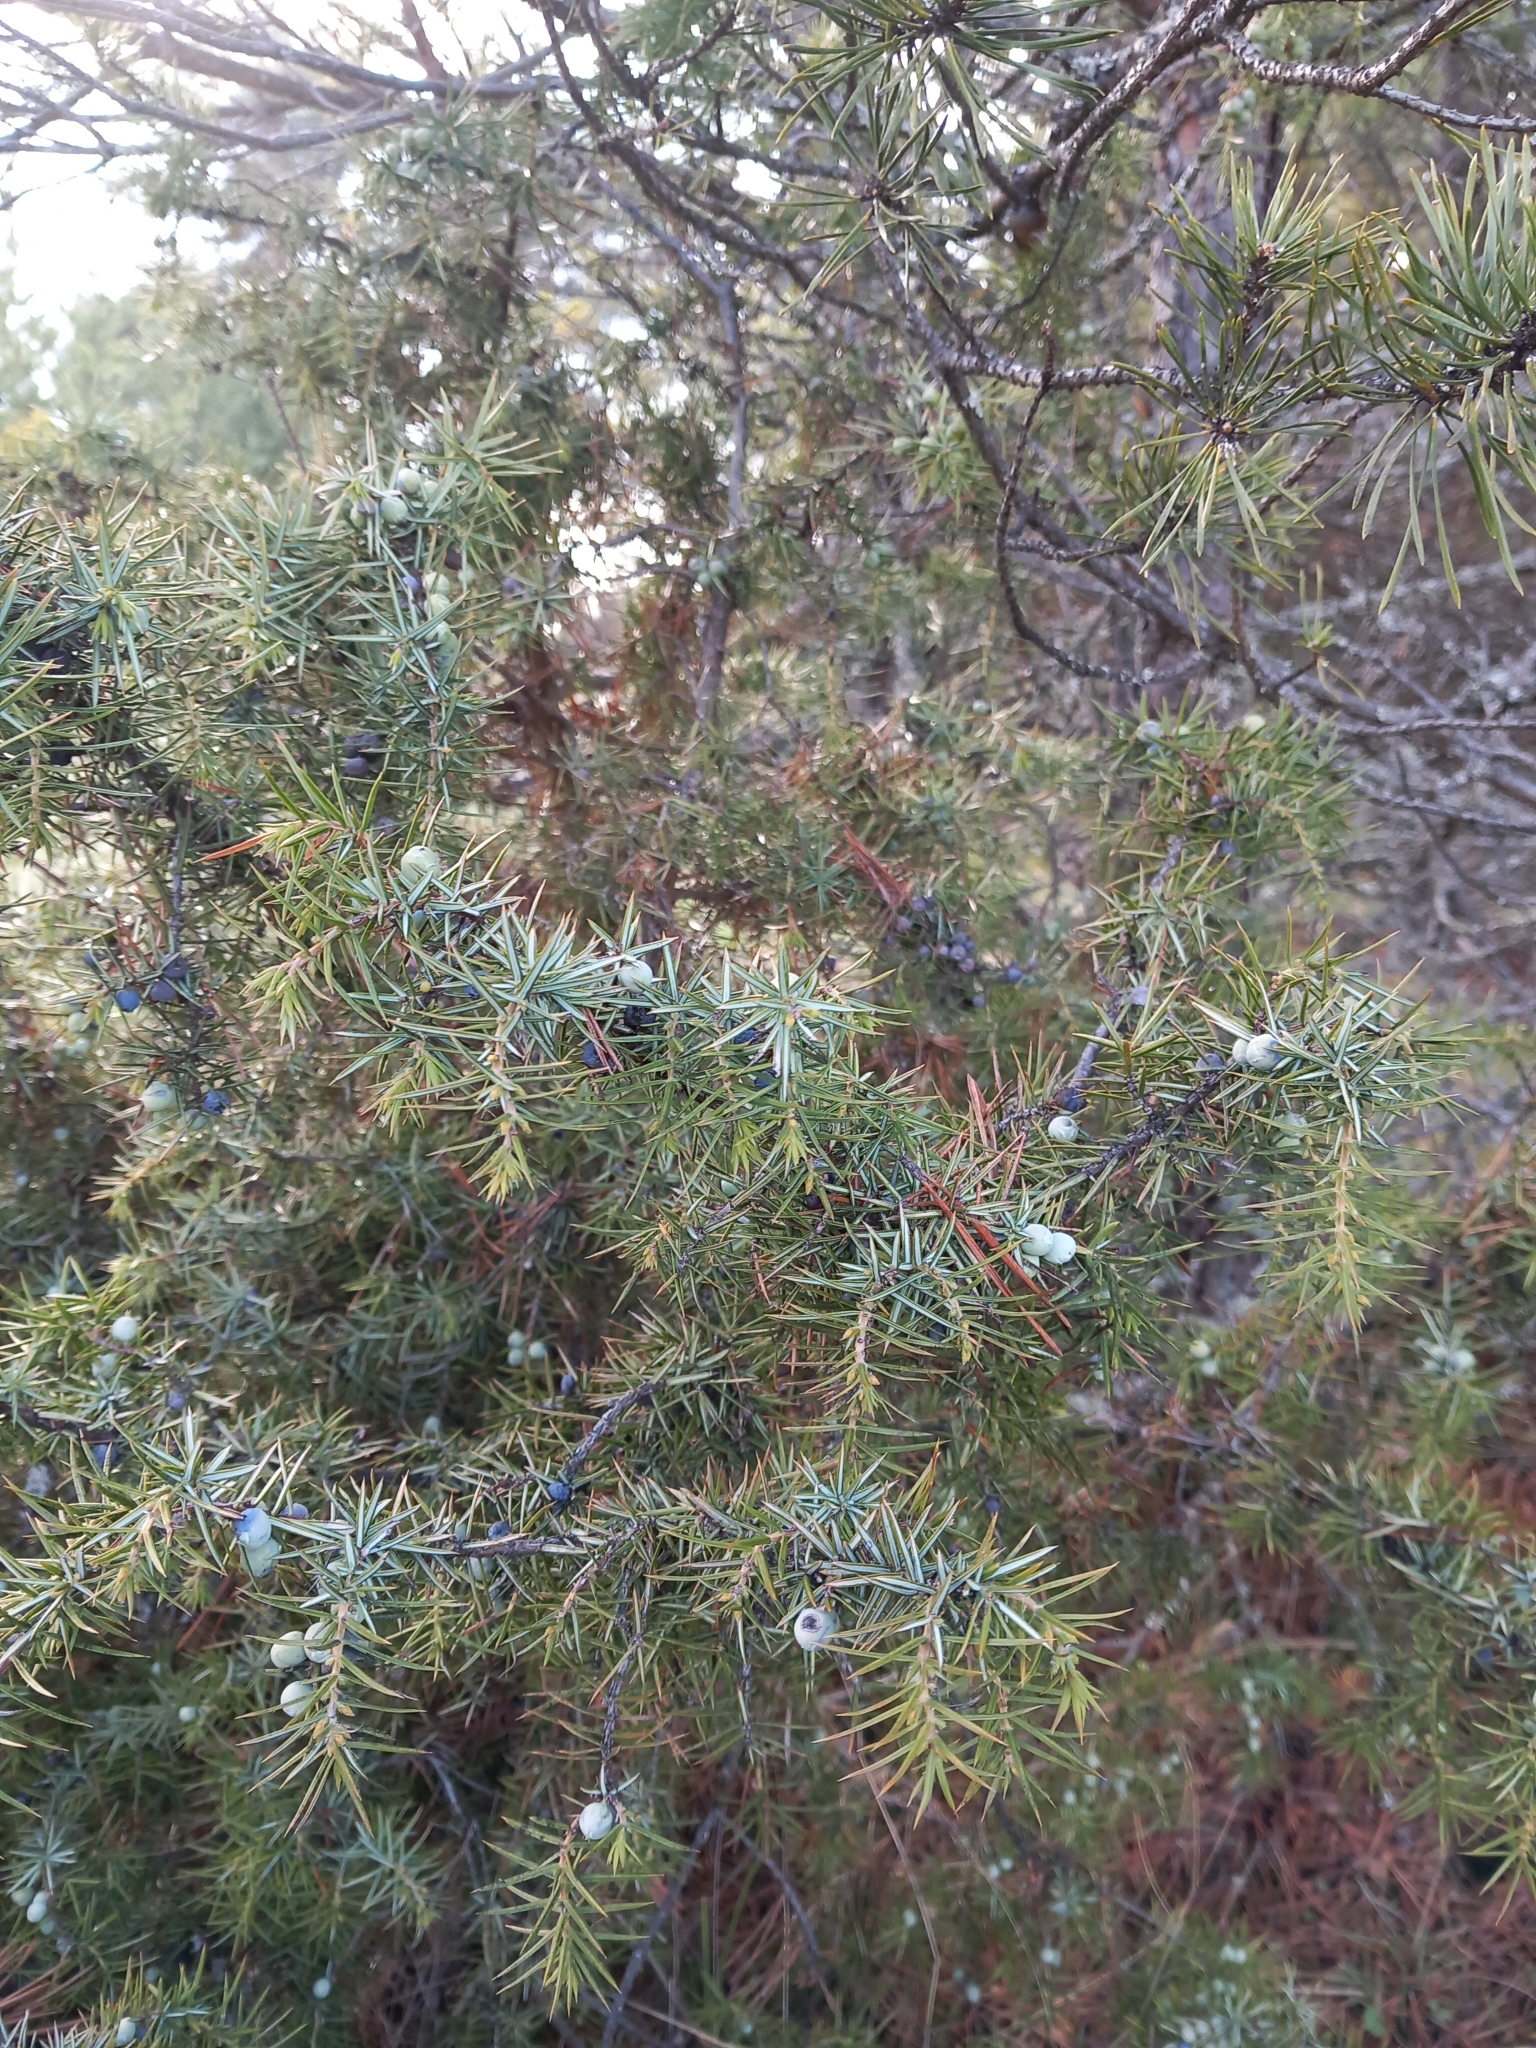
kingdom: Plantae
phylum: Tracheophyta
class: Pinopsida
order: Pinales
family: Cupressaceae
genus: Juniperus
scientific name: Juniperus communis
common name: Common juniper
